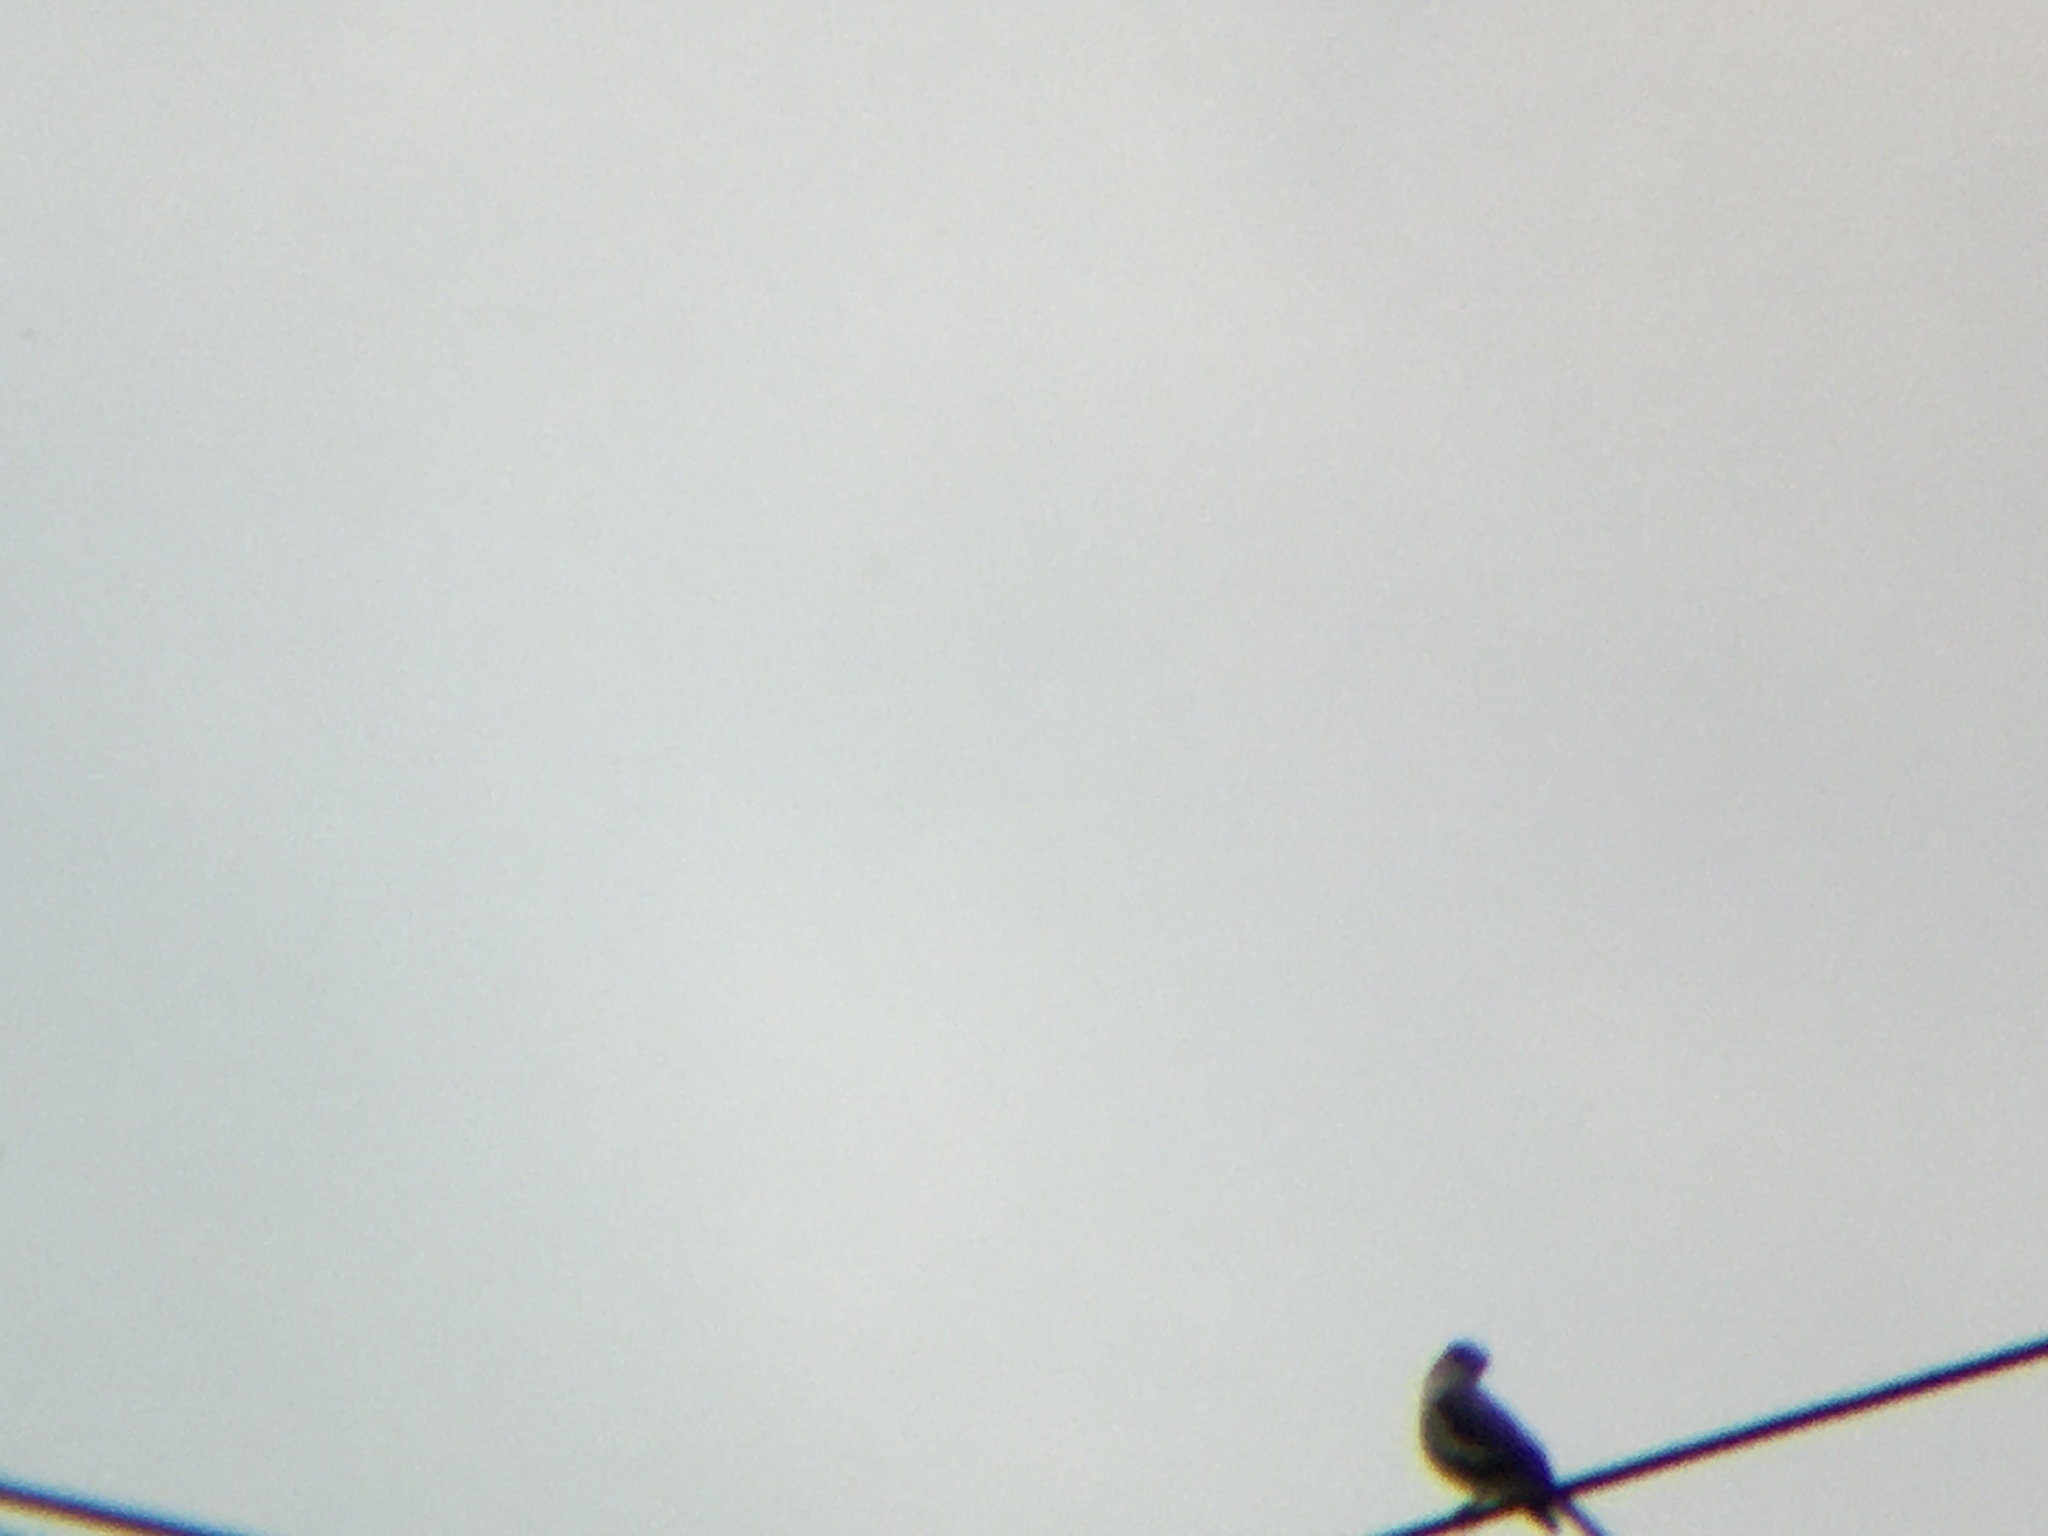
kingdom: Animalia
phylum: Chordata
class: Aves
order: Passeriformes
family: Mimidae
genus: Mimus
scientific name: Mimus polyglottos
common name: Northern mockingbird
